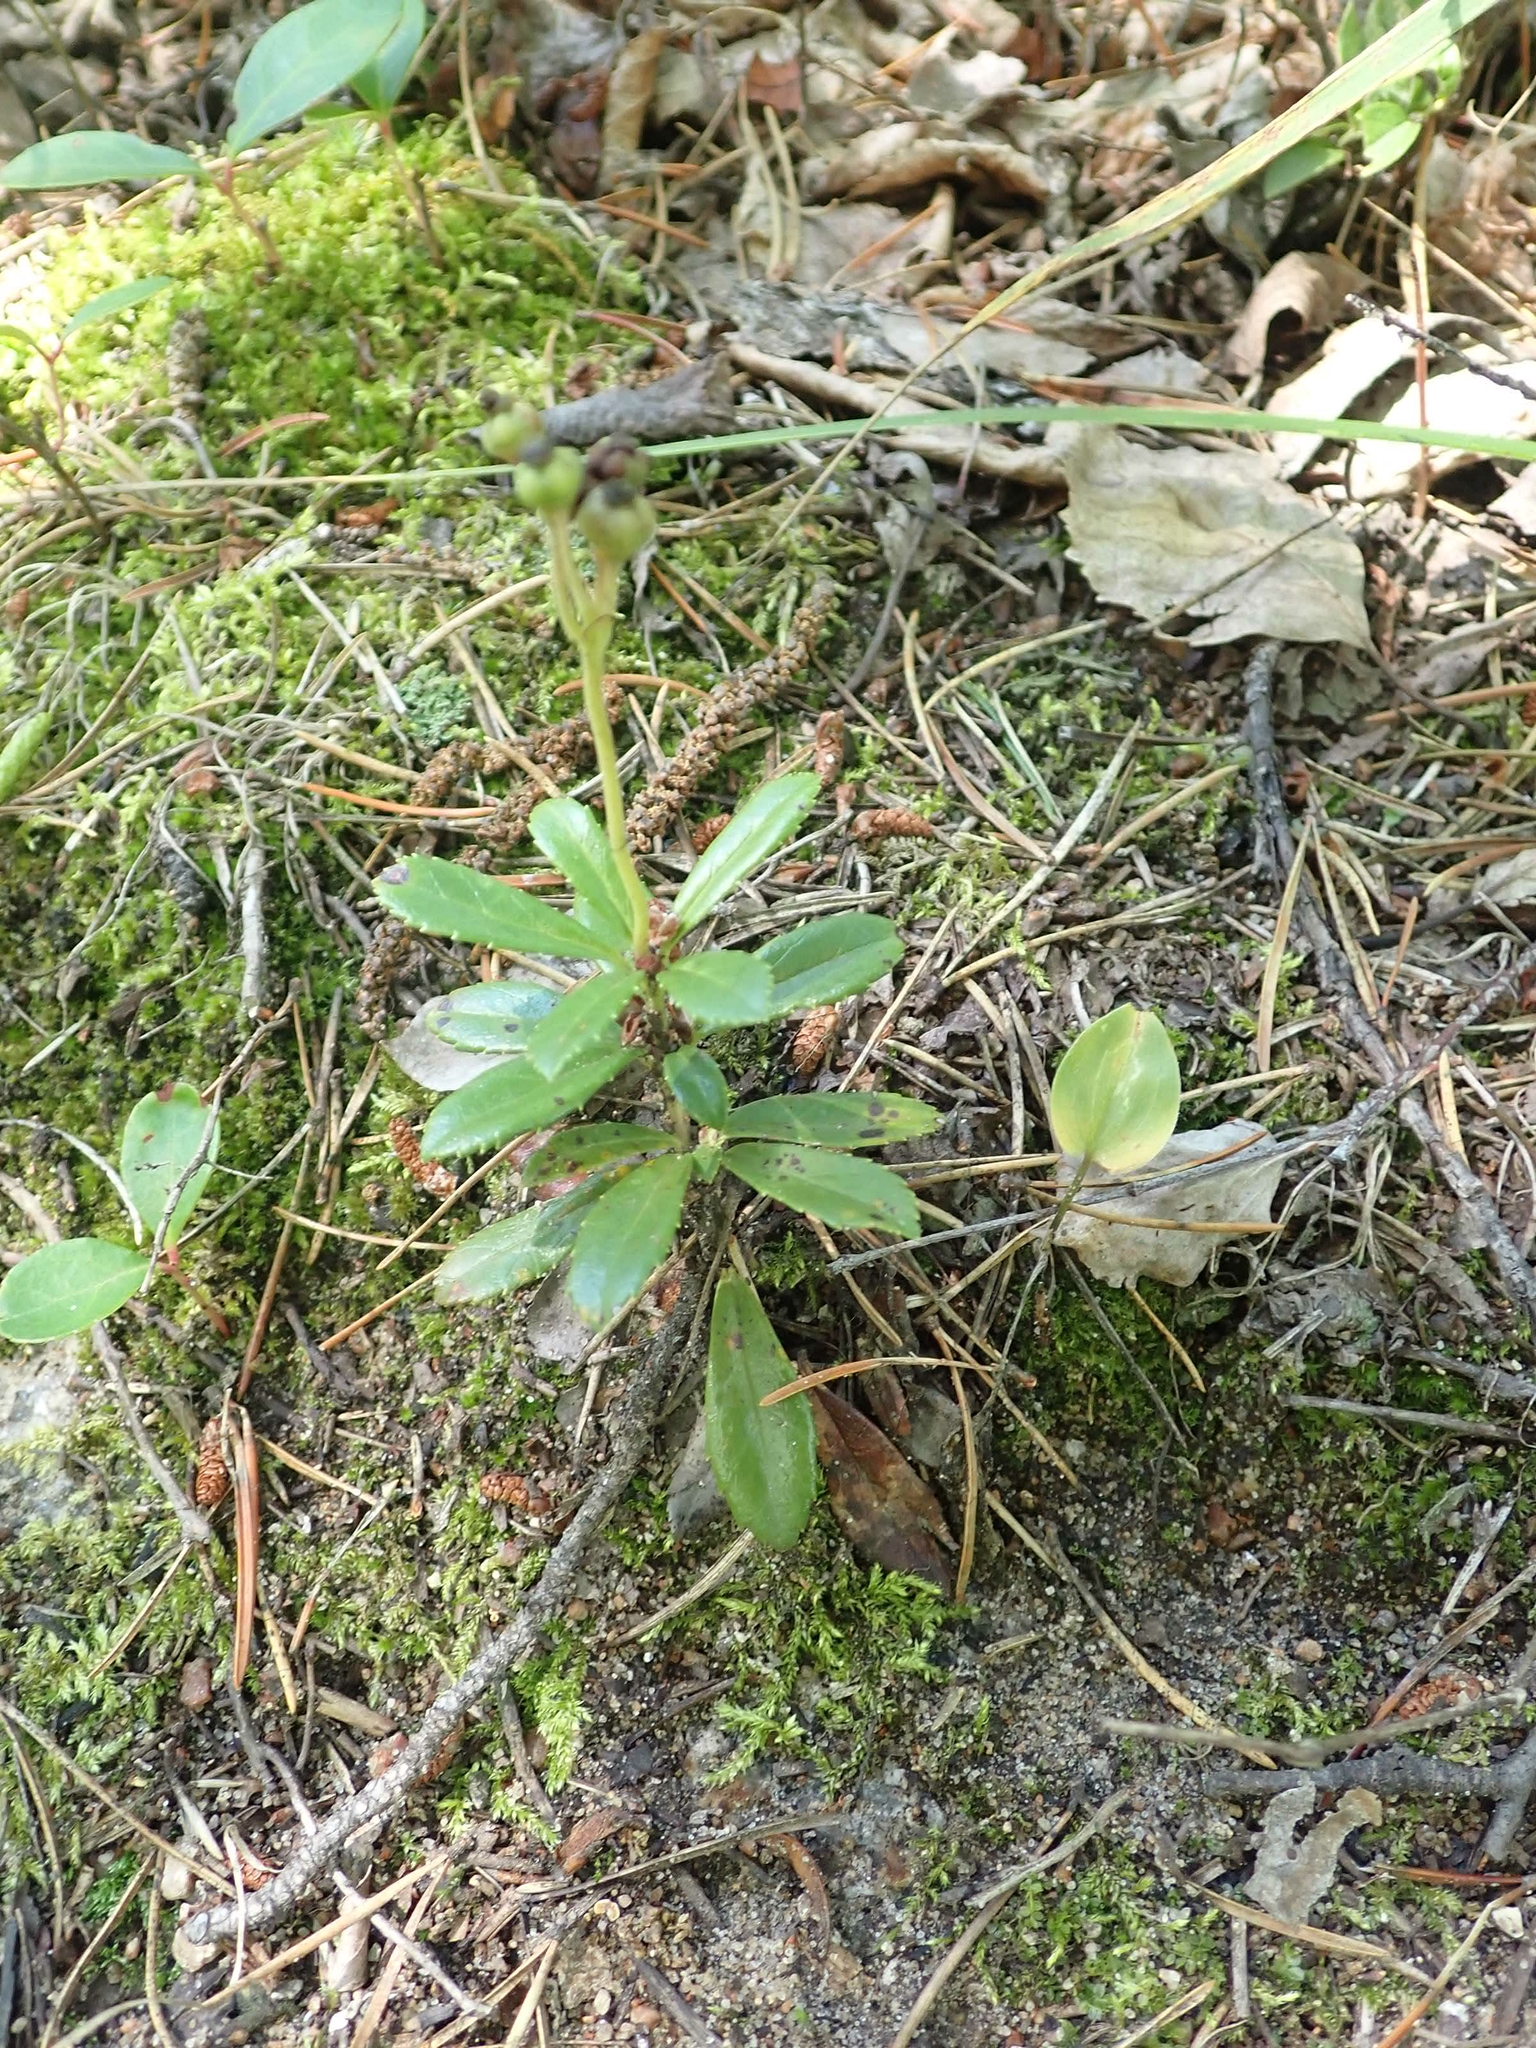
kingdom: Plantae
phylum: Tracheophyta
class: Magnoliopsida
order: Ericales
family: Ericaceae
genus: Chimaphila
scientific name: Chimaphila umbellata
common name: Pipsissewa
